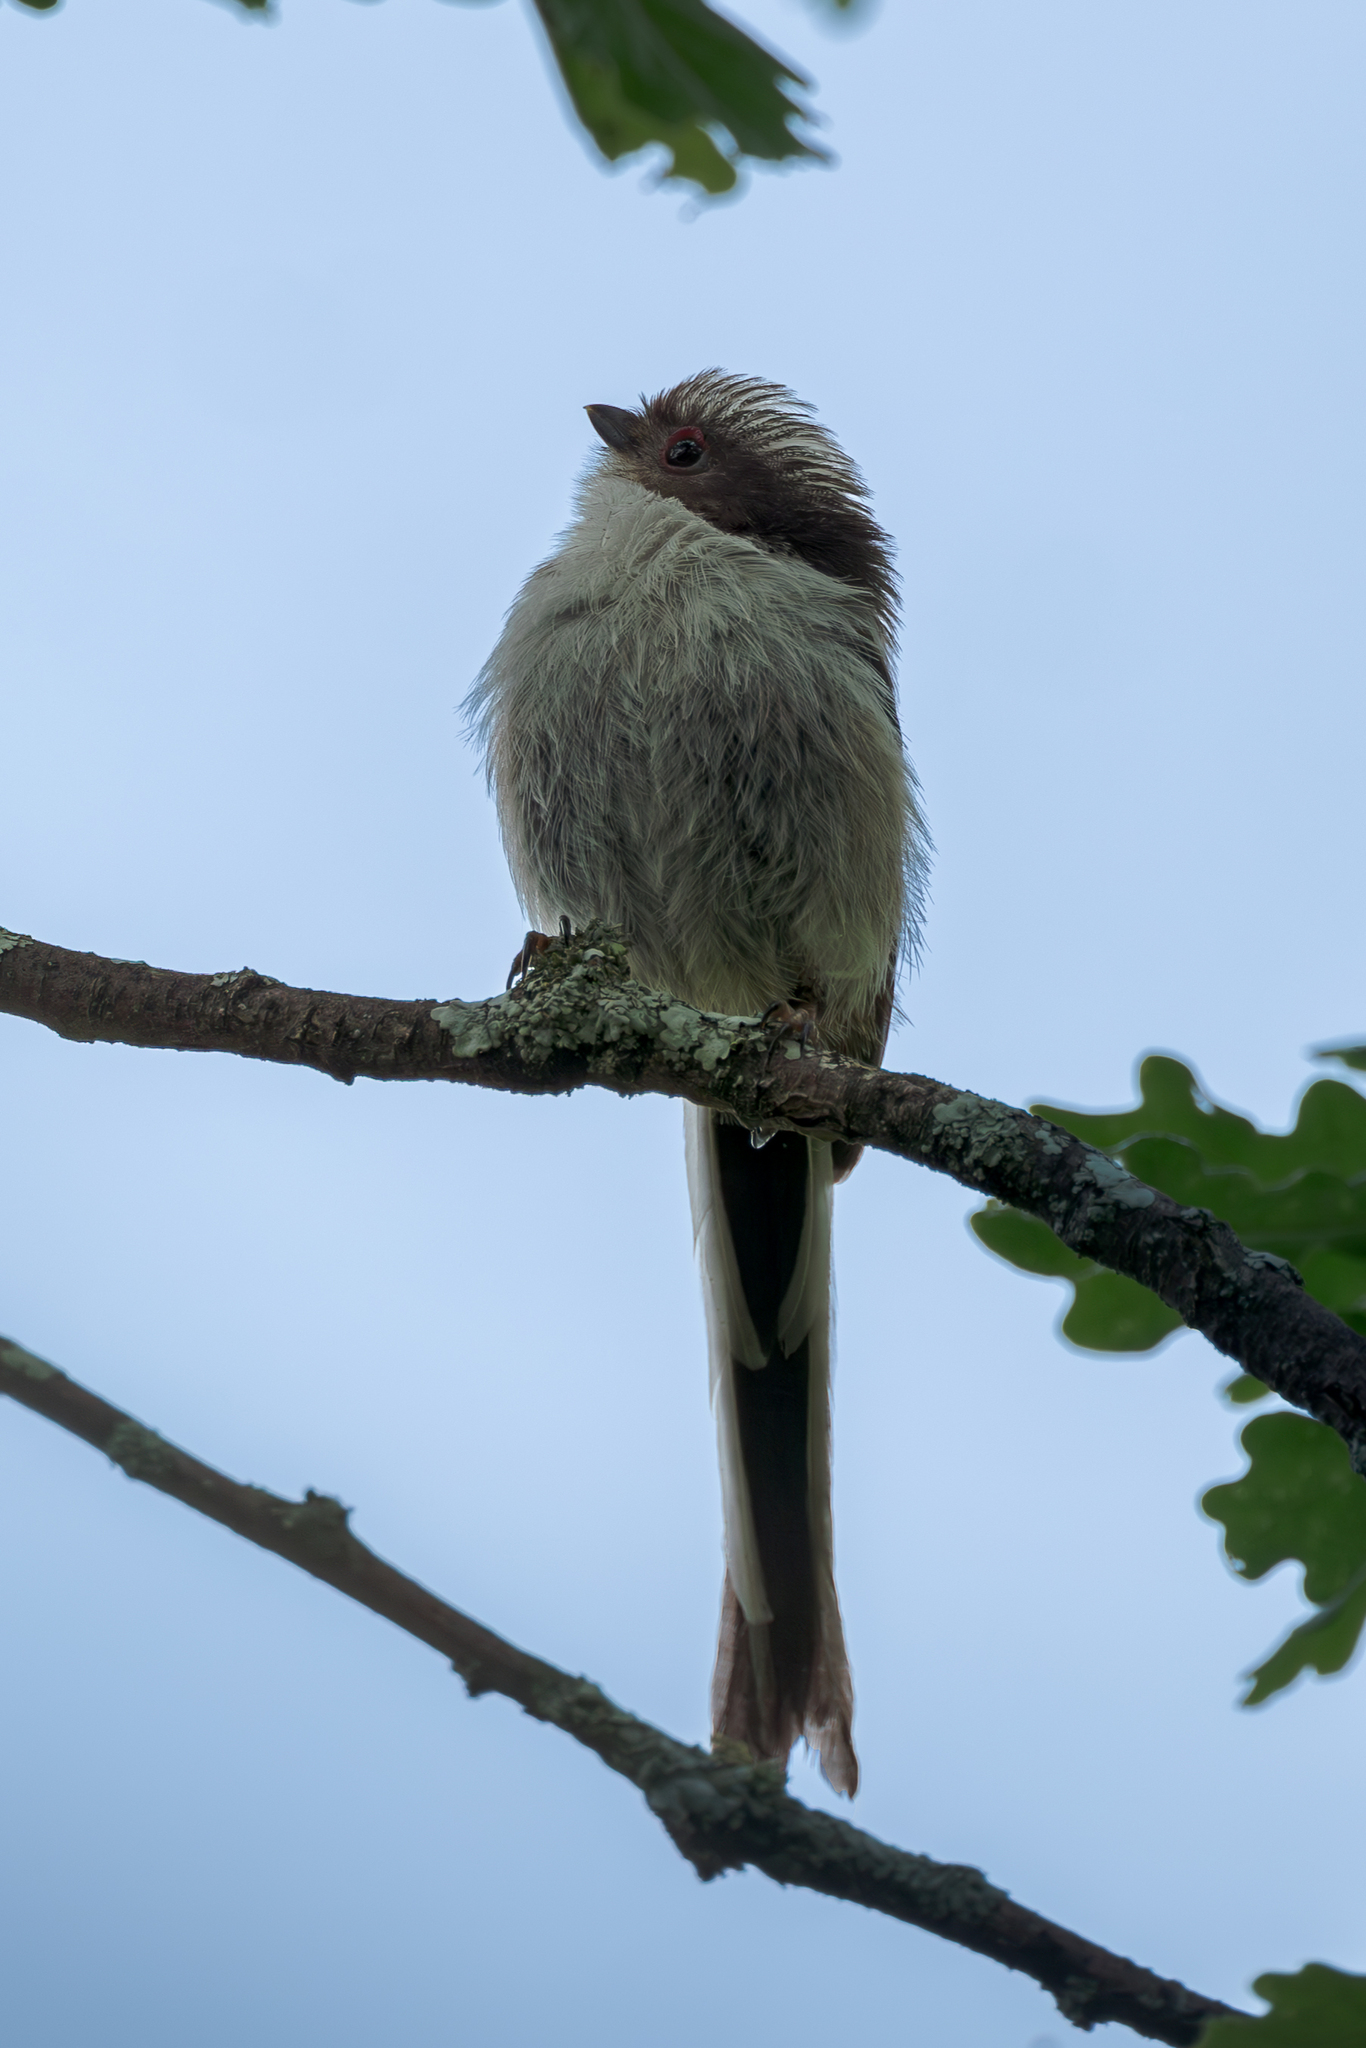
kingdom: Animalia
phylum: Chordata
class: Aves
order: Passeriformes
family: Aegithalidae
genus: Aegithalos
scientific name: Aegithalos caudatus
